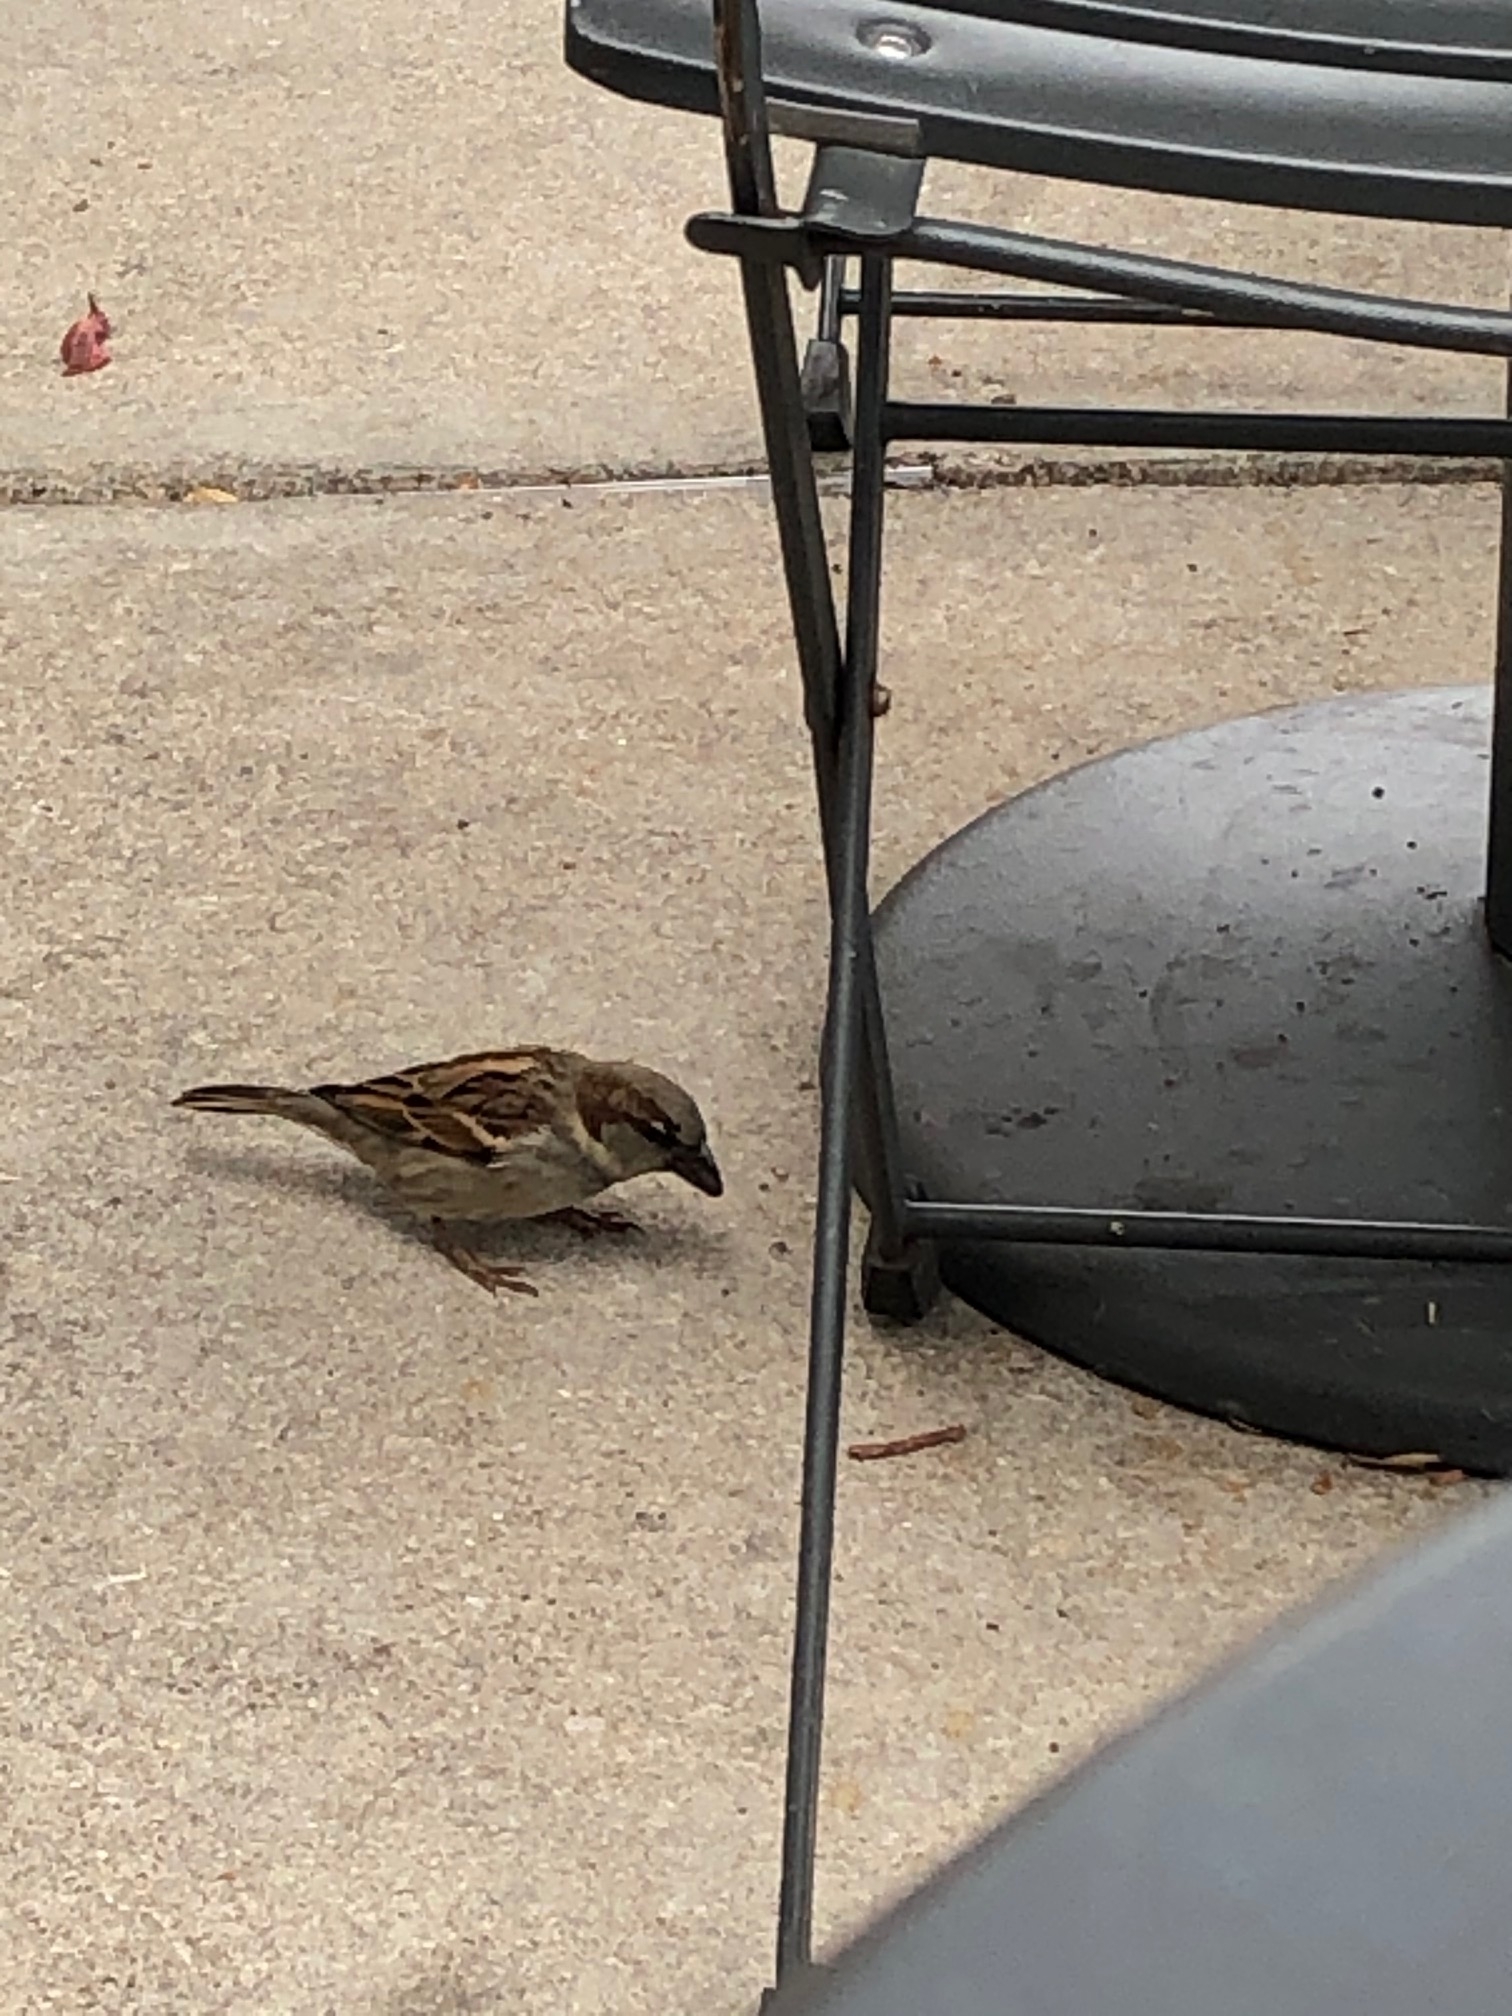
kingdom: Animalia
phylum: Chordata
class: Aves
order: Passeriformes
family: Passeridae
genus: Passer
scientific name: Passer domesticus
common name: House sparrow
